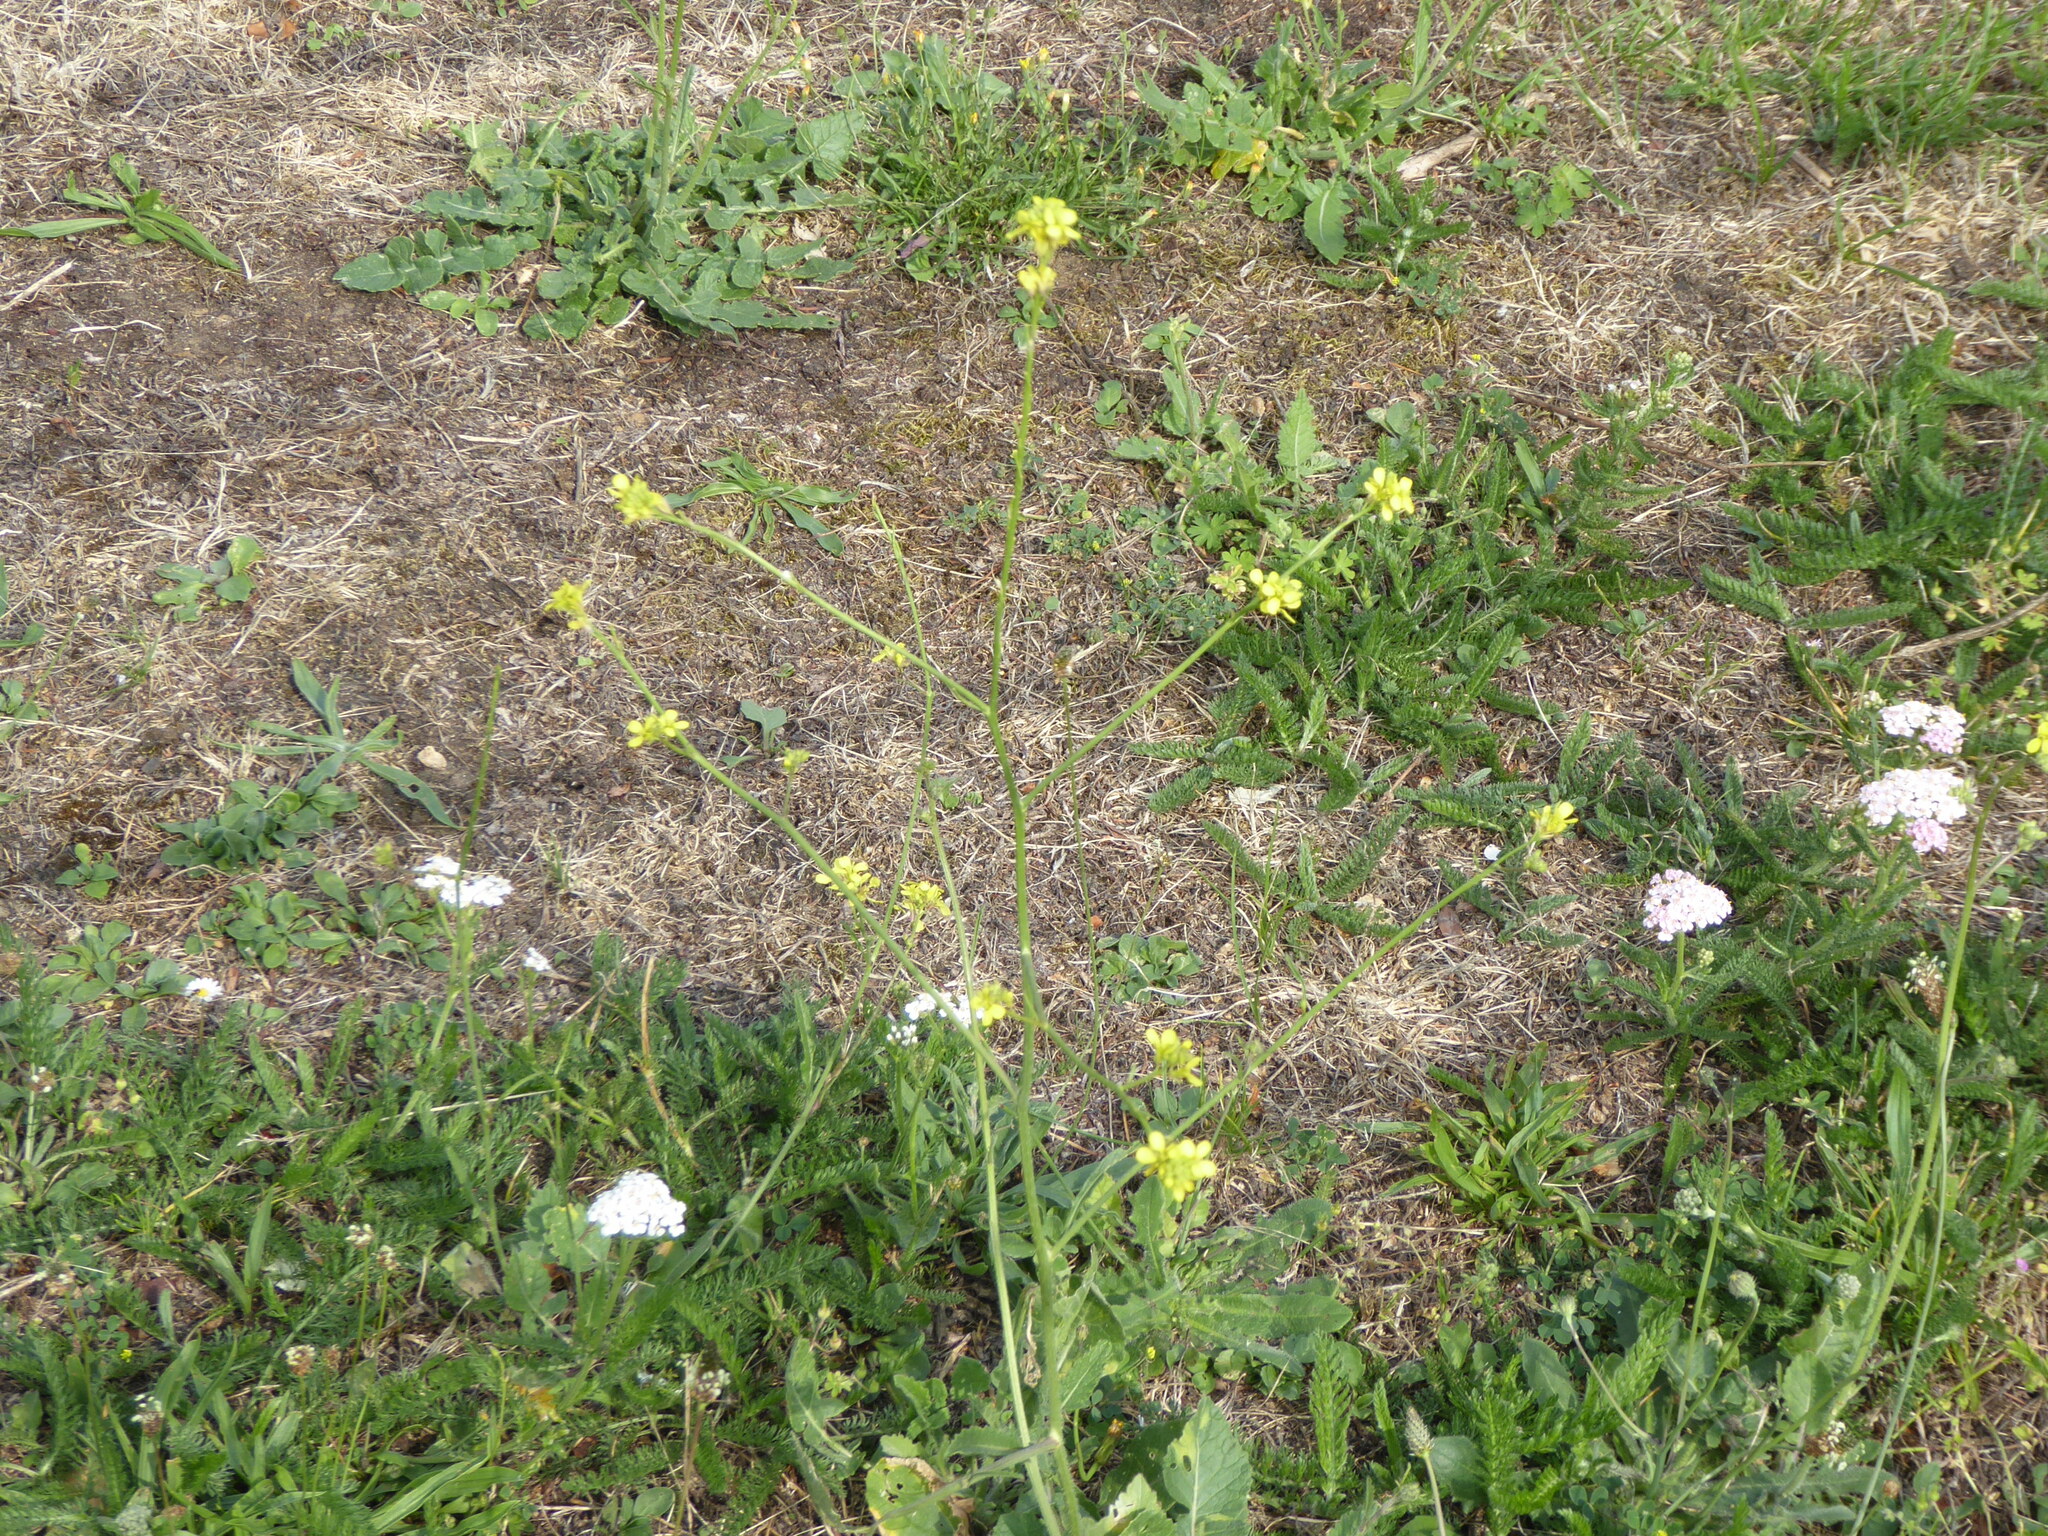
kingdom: Plantae
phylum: Tracheophyta
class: Magnoliopsida
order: Brassicales
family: Brassicaceae
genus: Hirschfeldia
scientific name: Hirschfeldia incana
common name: Hoary mustard
